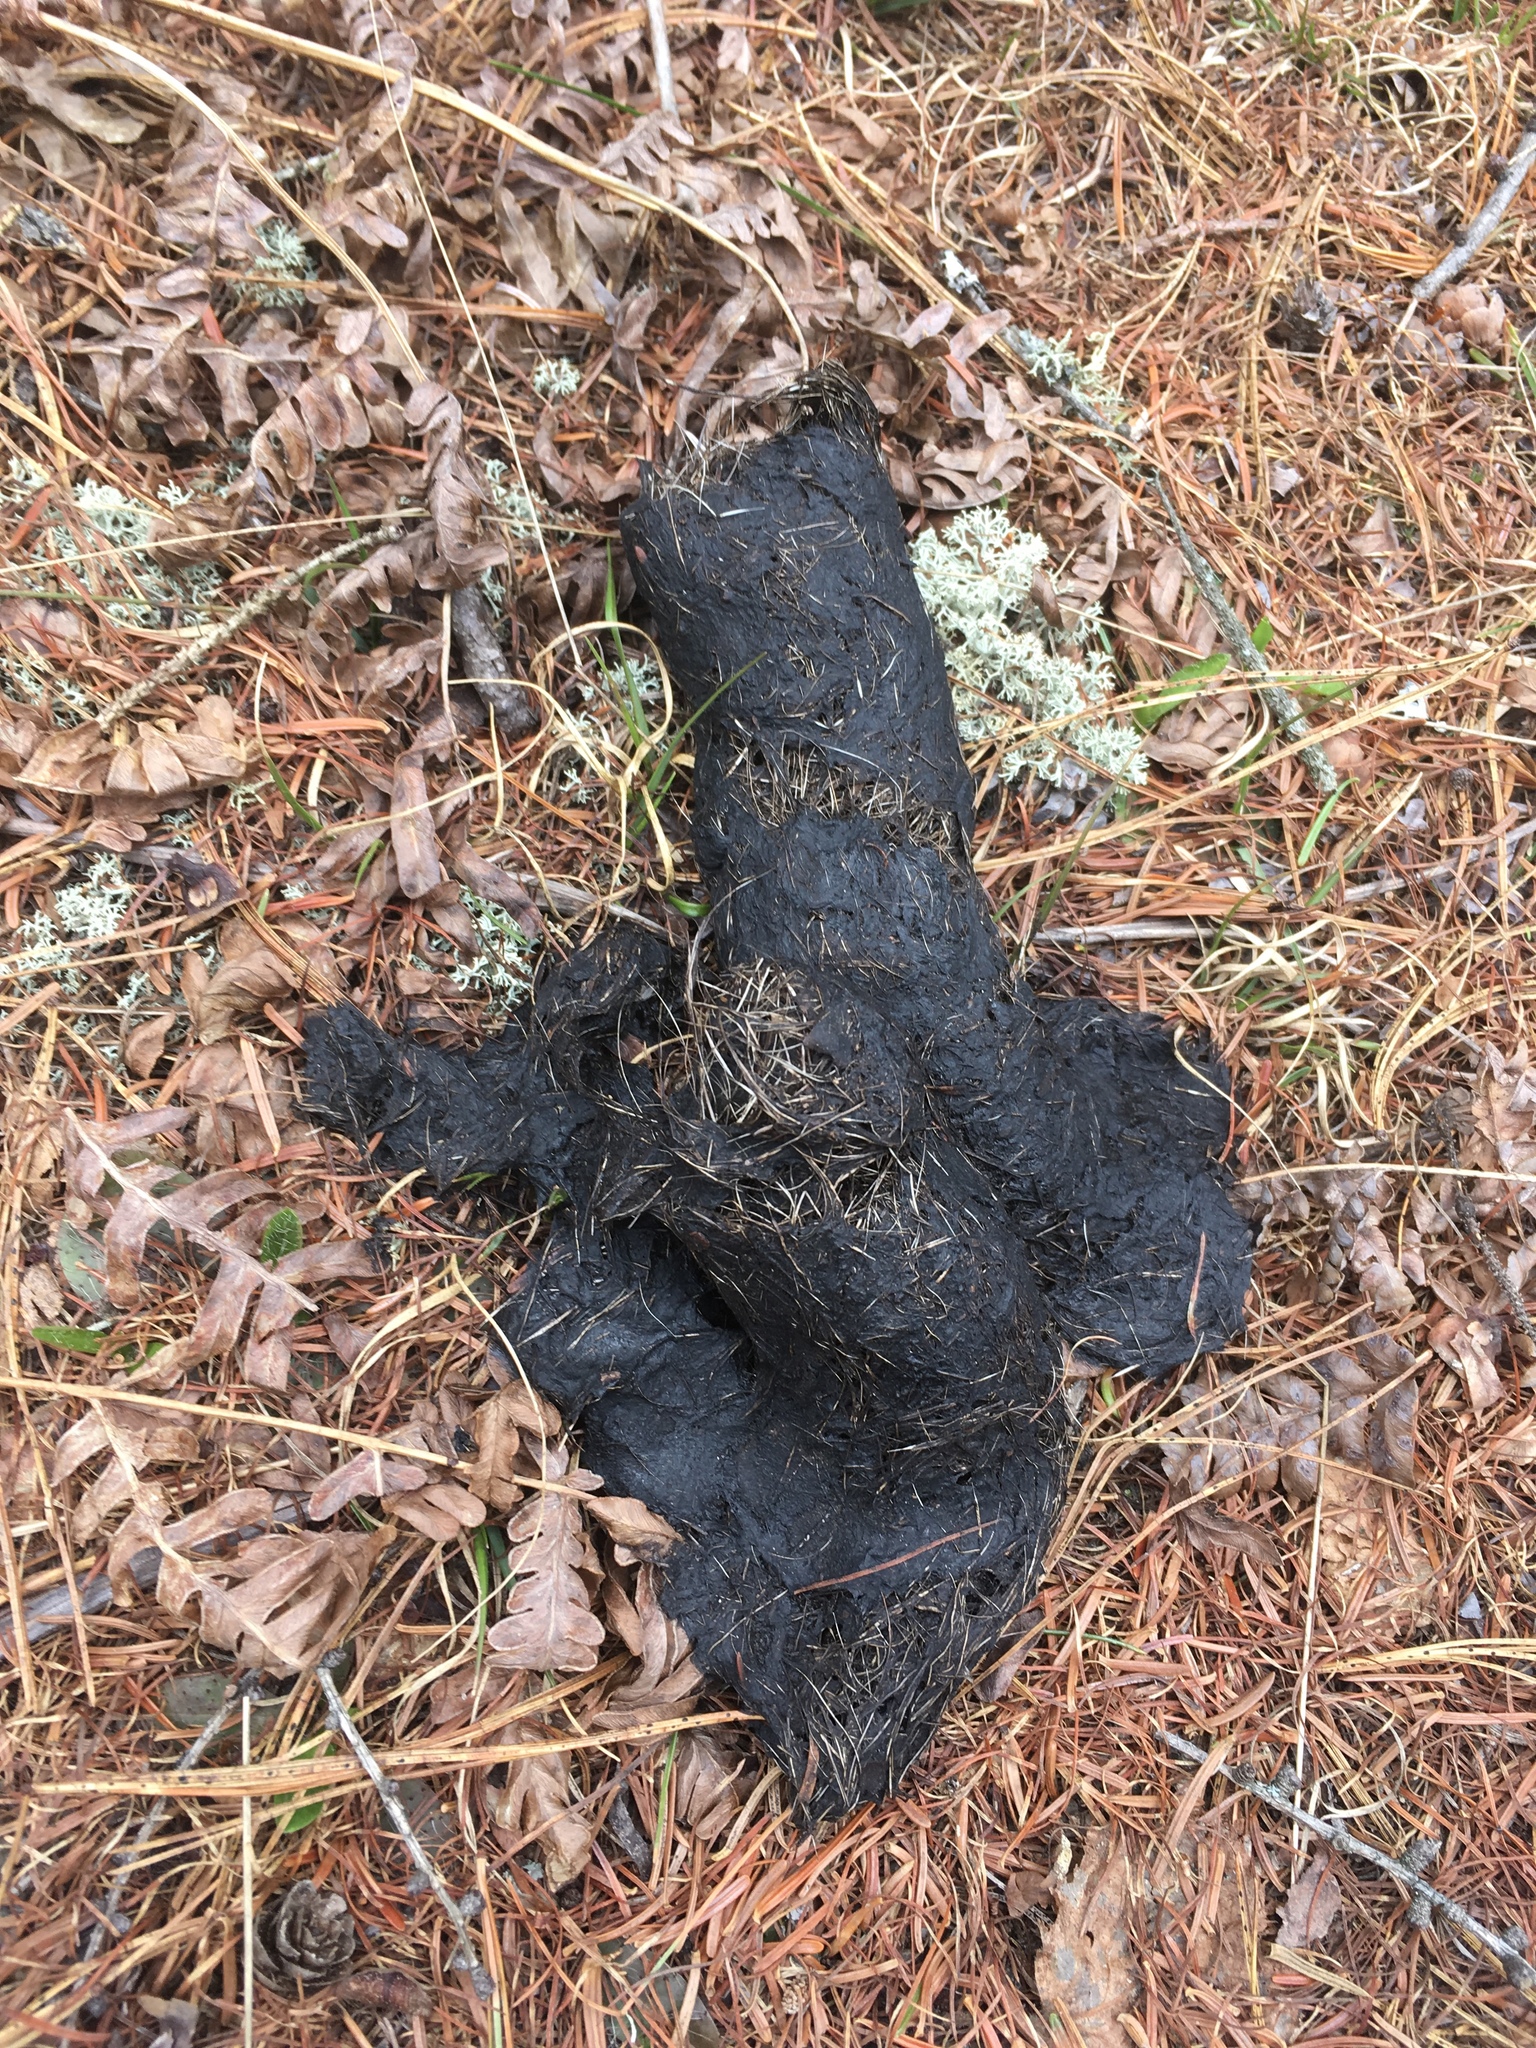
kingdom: Animalia
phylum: Chordata
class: Mammalia
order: Carnivora
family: Canidae
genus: Canis
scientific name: Canis lycaon
